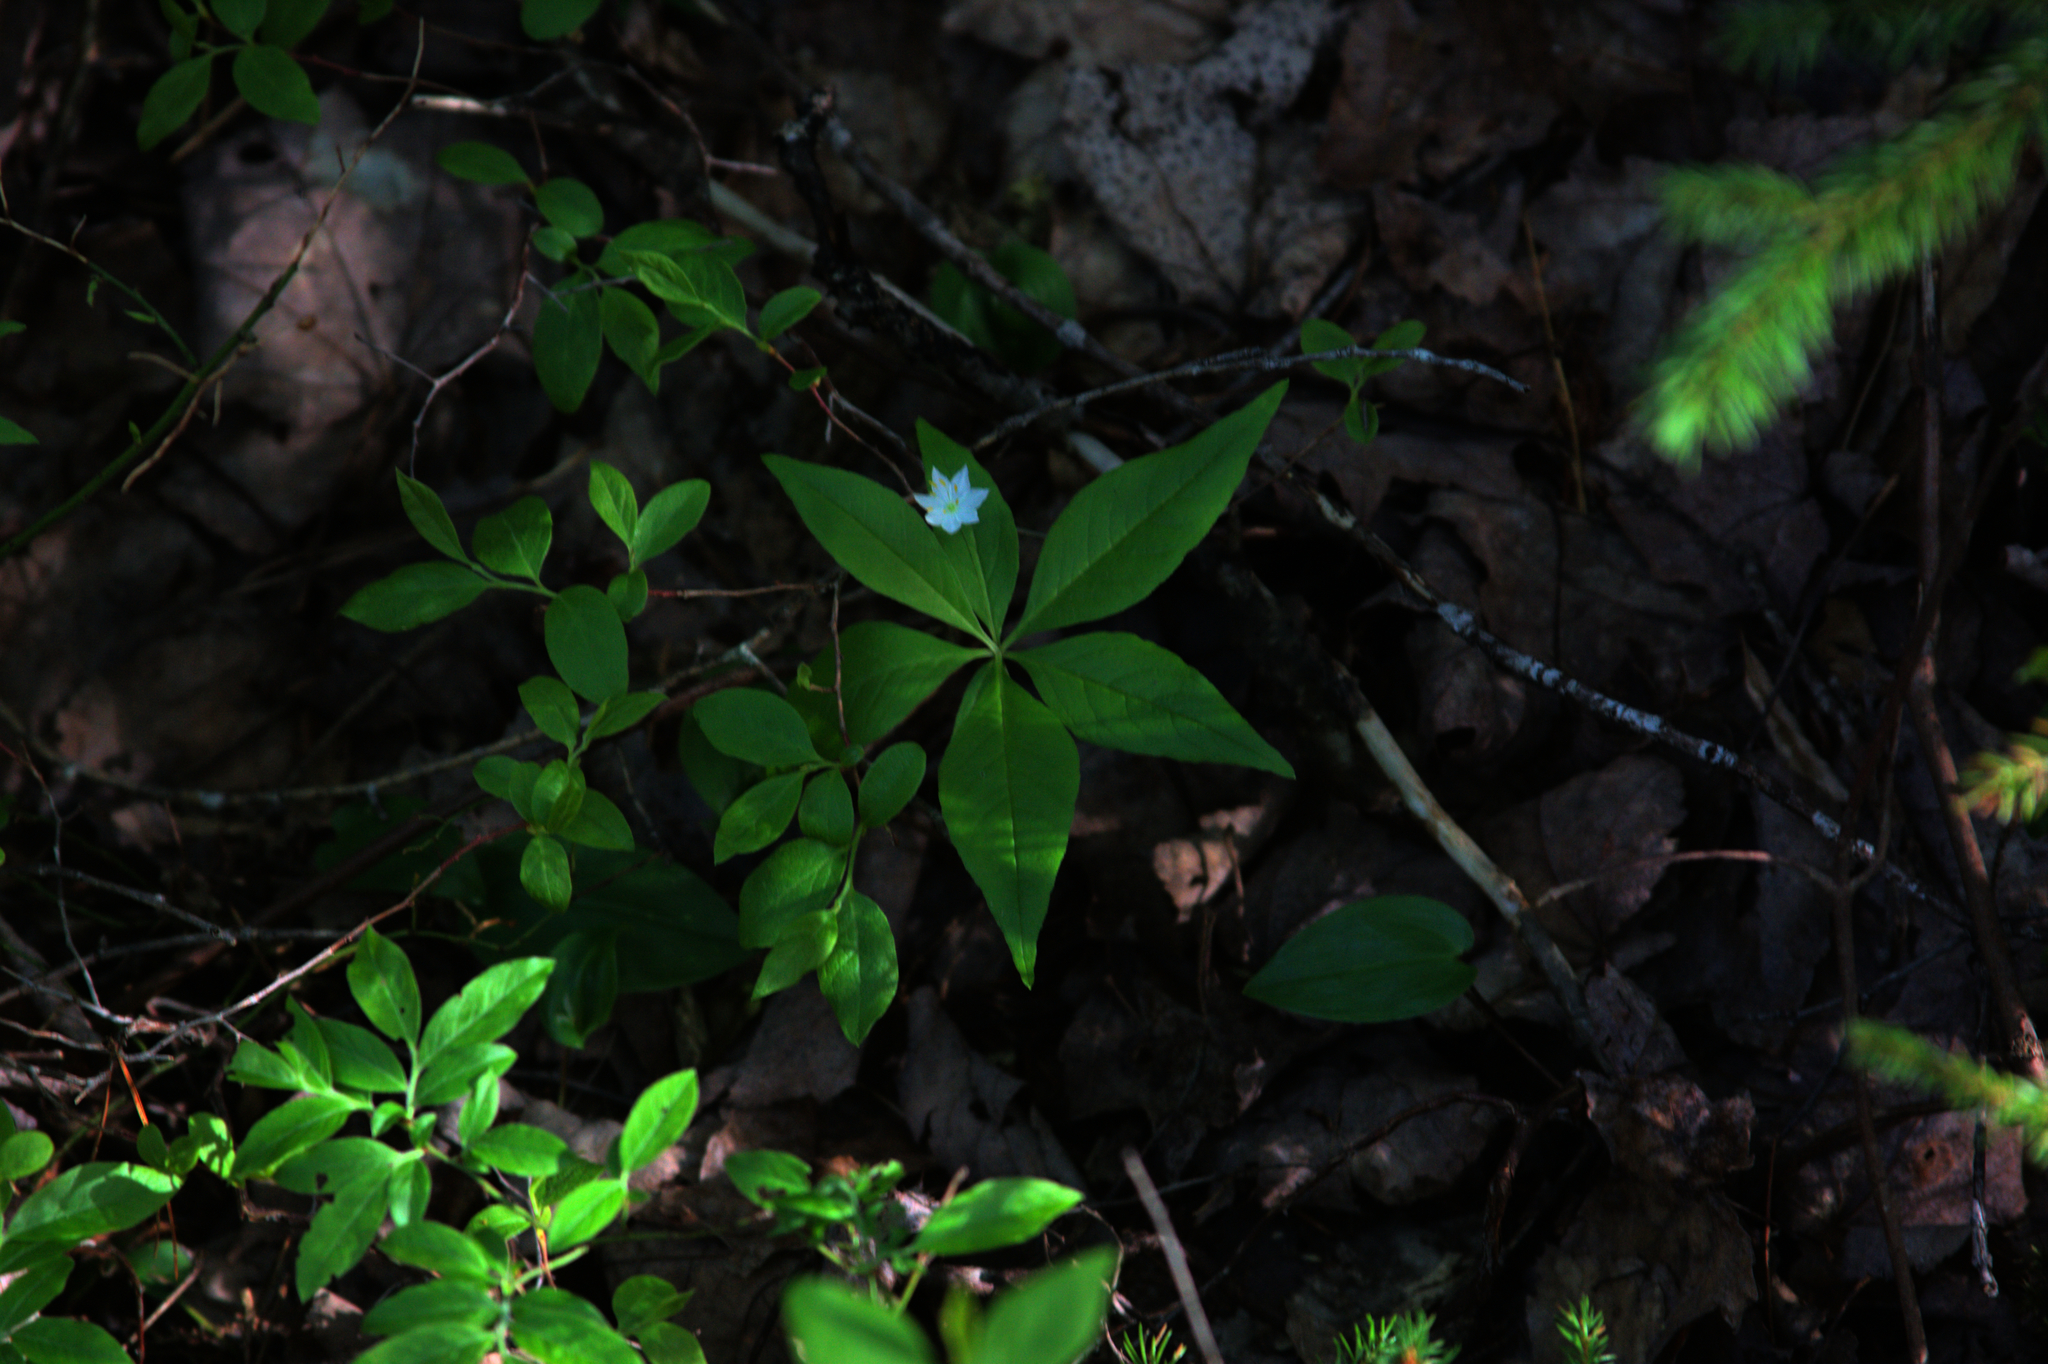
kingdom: Plantae
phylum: Tracheophyta
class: Magnoliopsida
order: Ericales
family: Primulaceae
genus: Lysimachia
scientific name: Lysimachia borealis
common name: American starflower
